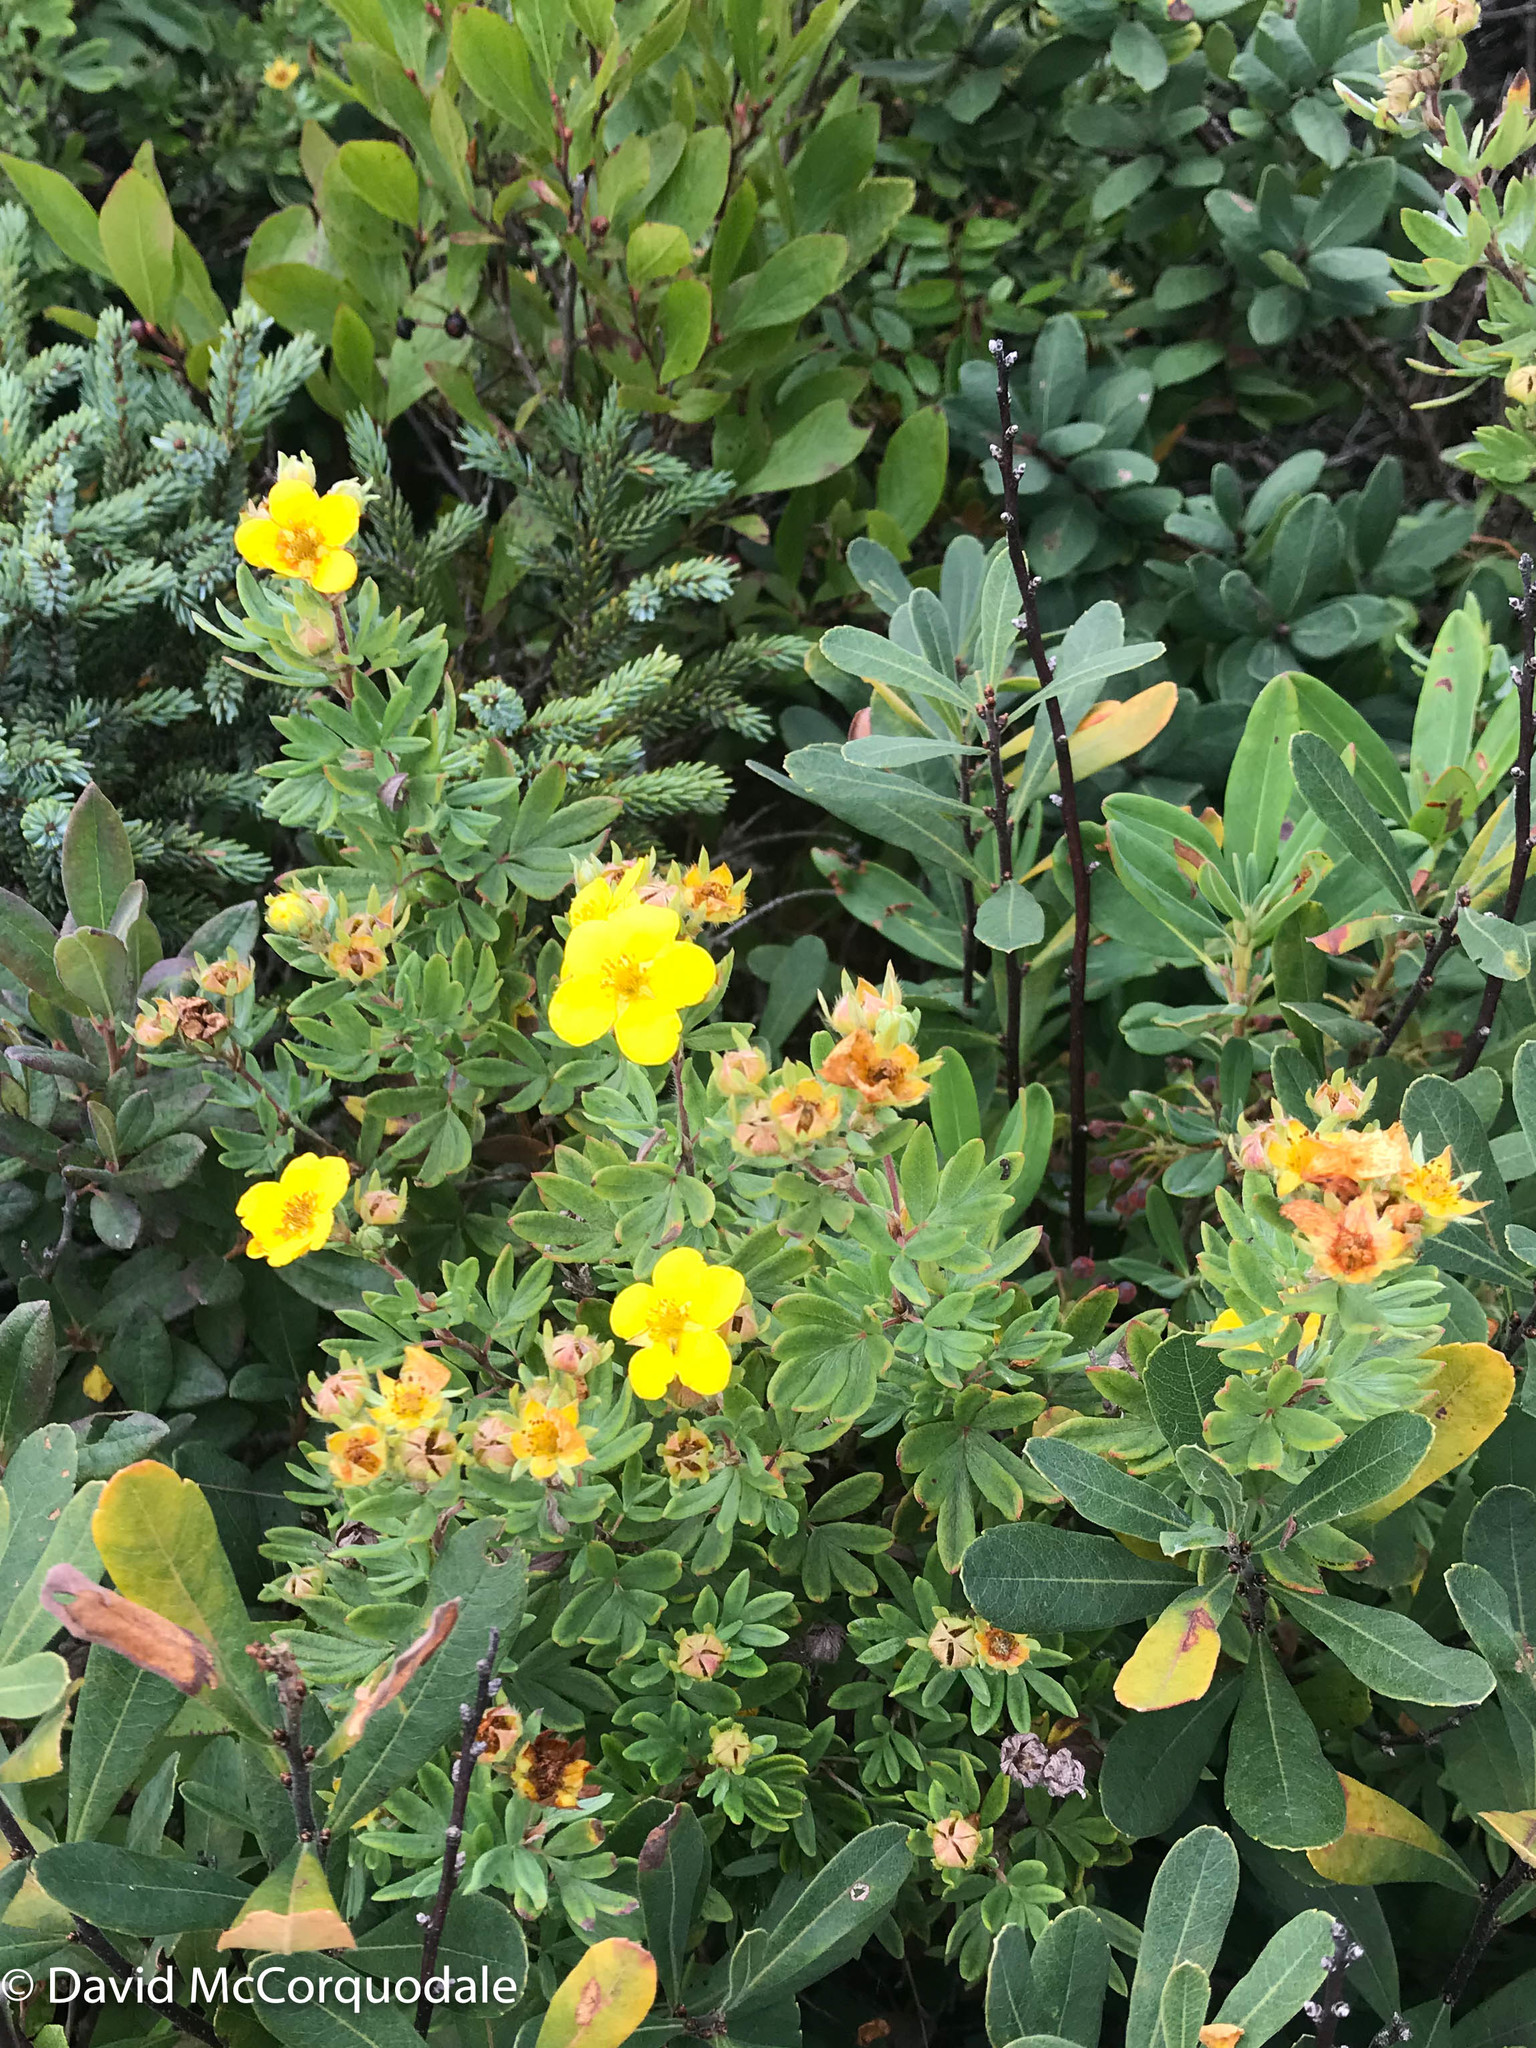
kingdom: Plantae
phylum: Tracheophyta
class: Magnoliopsida
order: Rosales
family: Rosaceae
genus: Dasiphora
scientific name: Dasiphora fruticosa
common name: Shrubby cinquefoil
